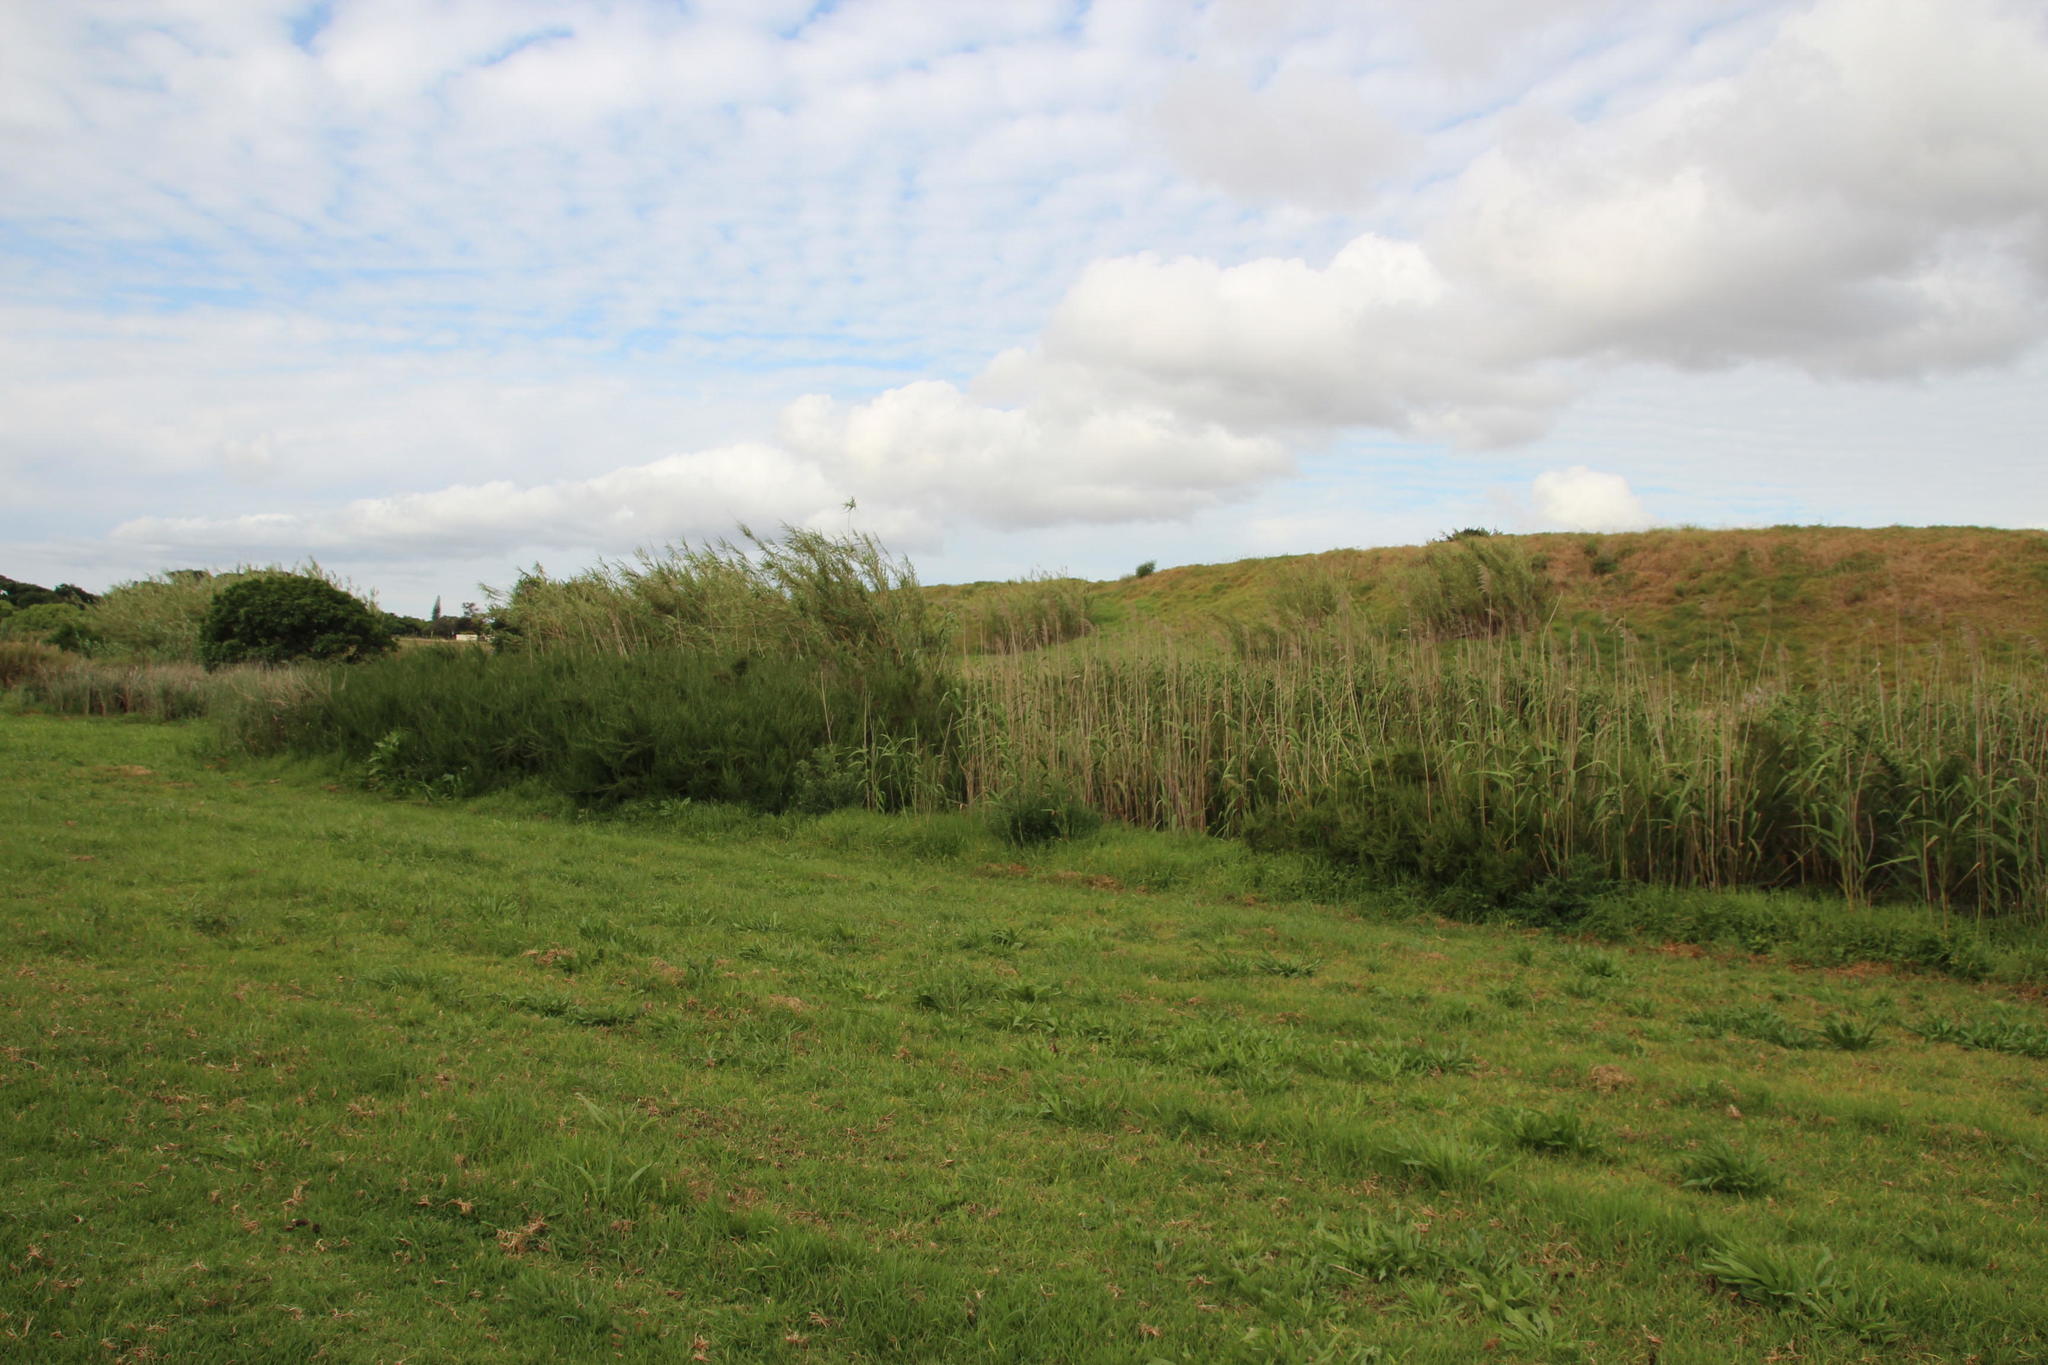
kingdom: Plantae
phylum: Tracheophyta
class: Liliopsida
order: Poales
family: Poaceae
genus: Phragmites
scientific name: Phragmites australis
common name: Common reed
